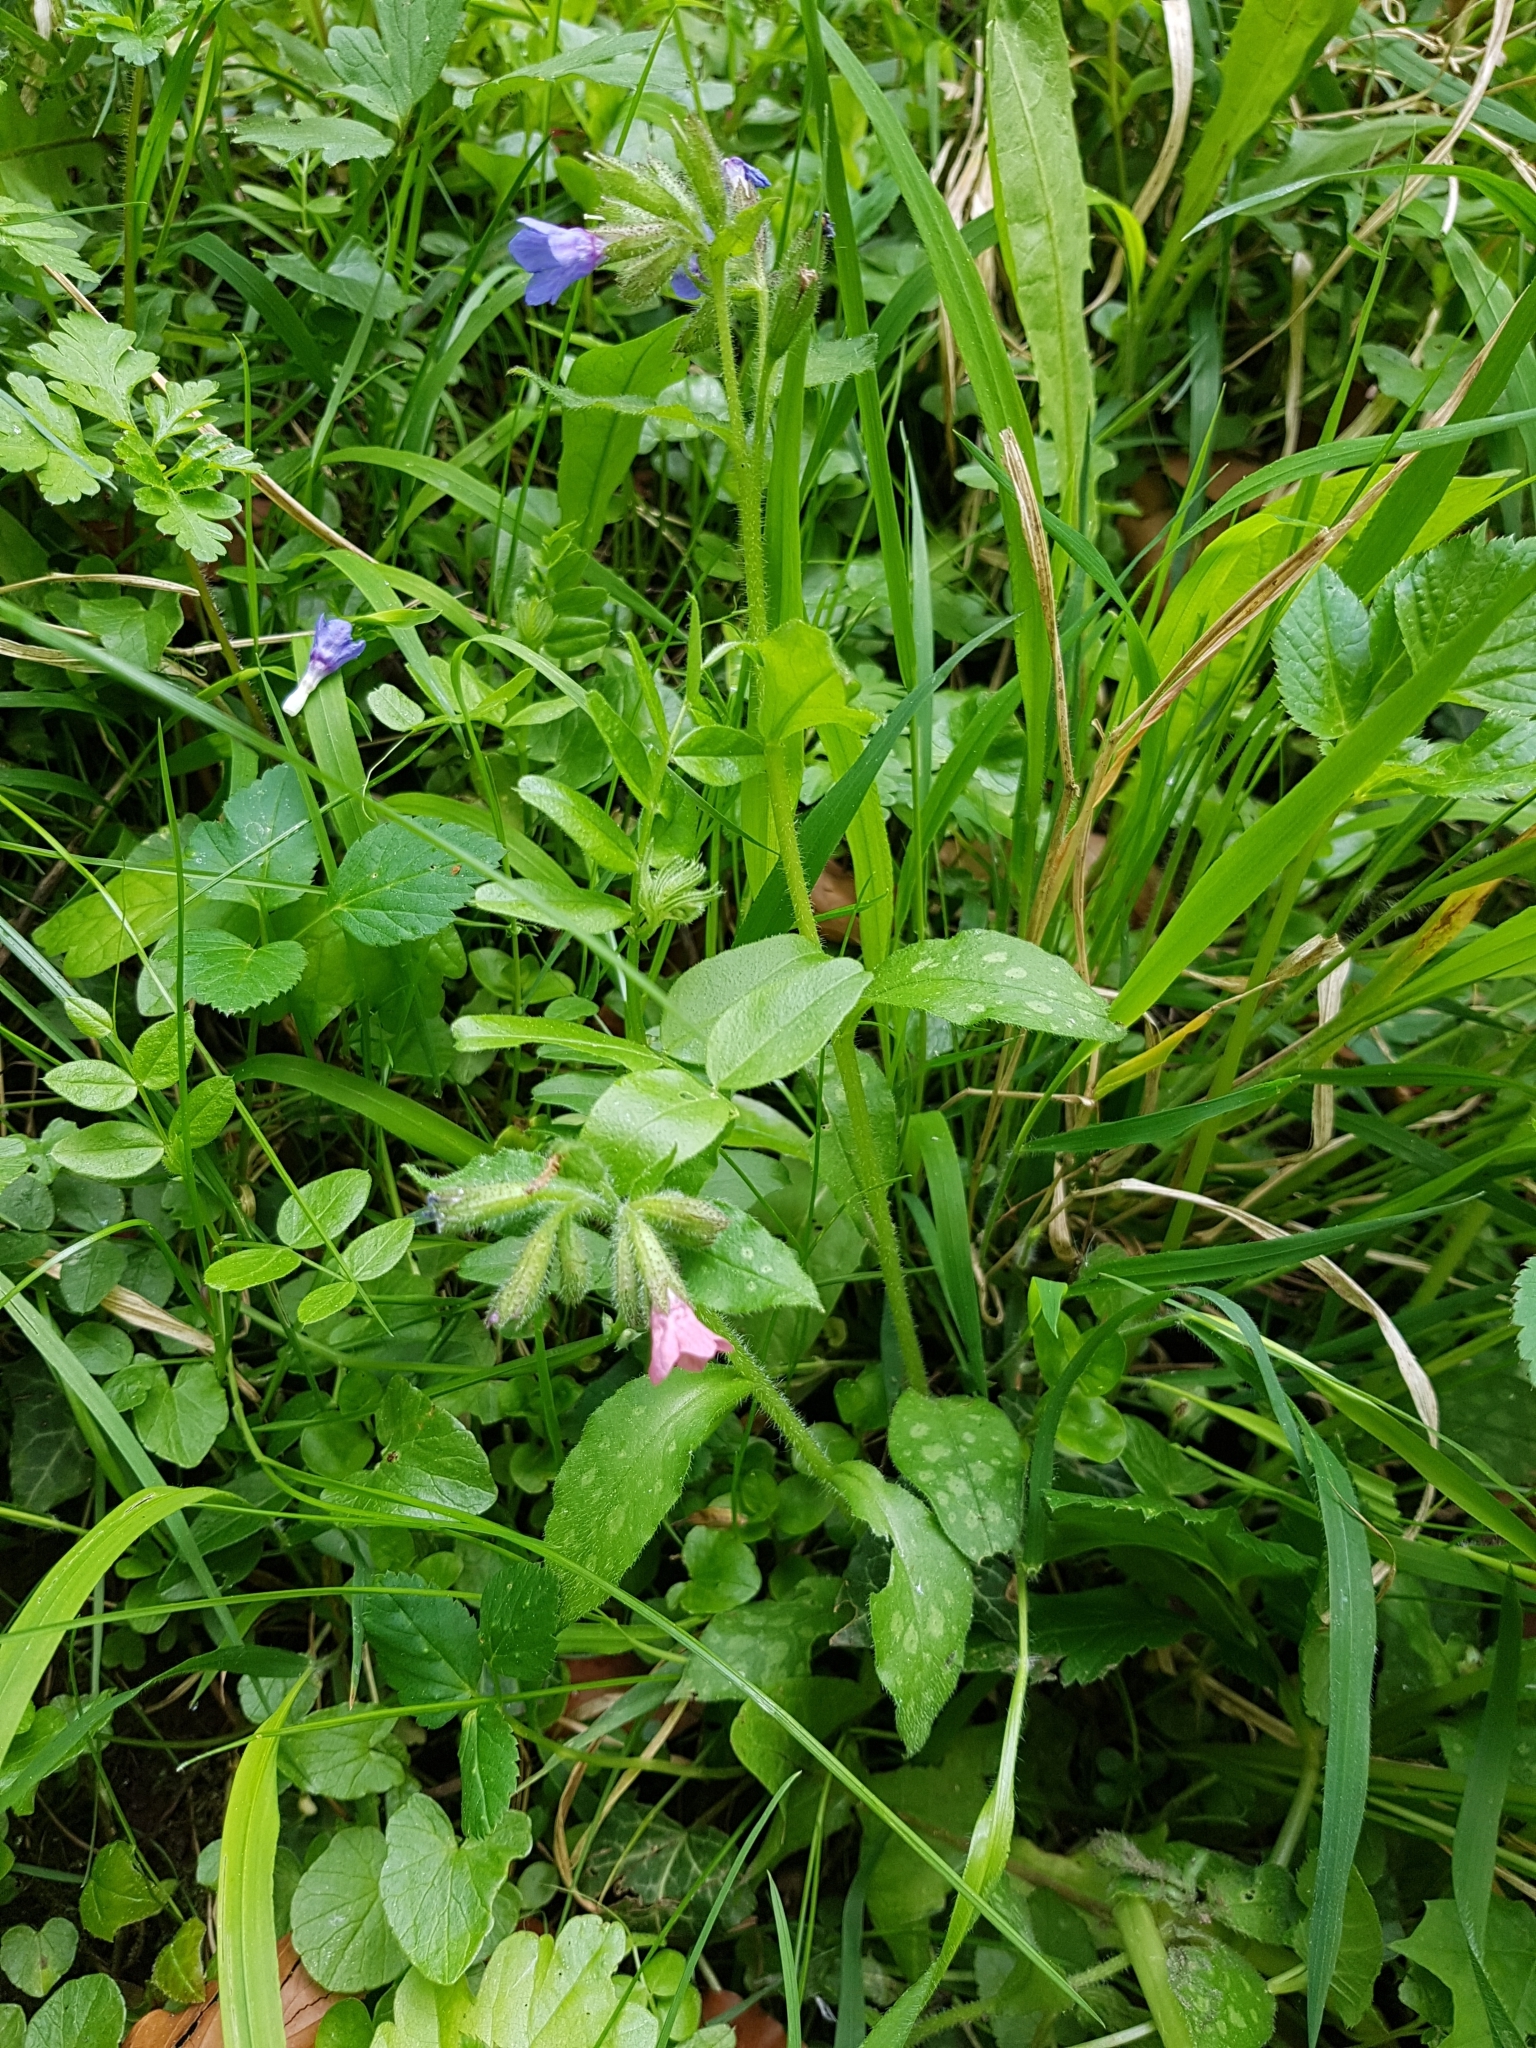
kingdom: Plantae
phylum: Tracheophyta
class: Magnoliopsida
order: Boraginales
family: Boraginaceae
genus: Pulmonaria
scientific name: Pulmonaria officinalis
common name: Lungwort
